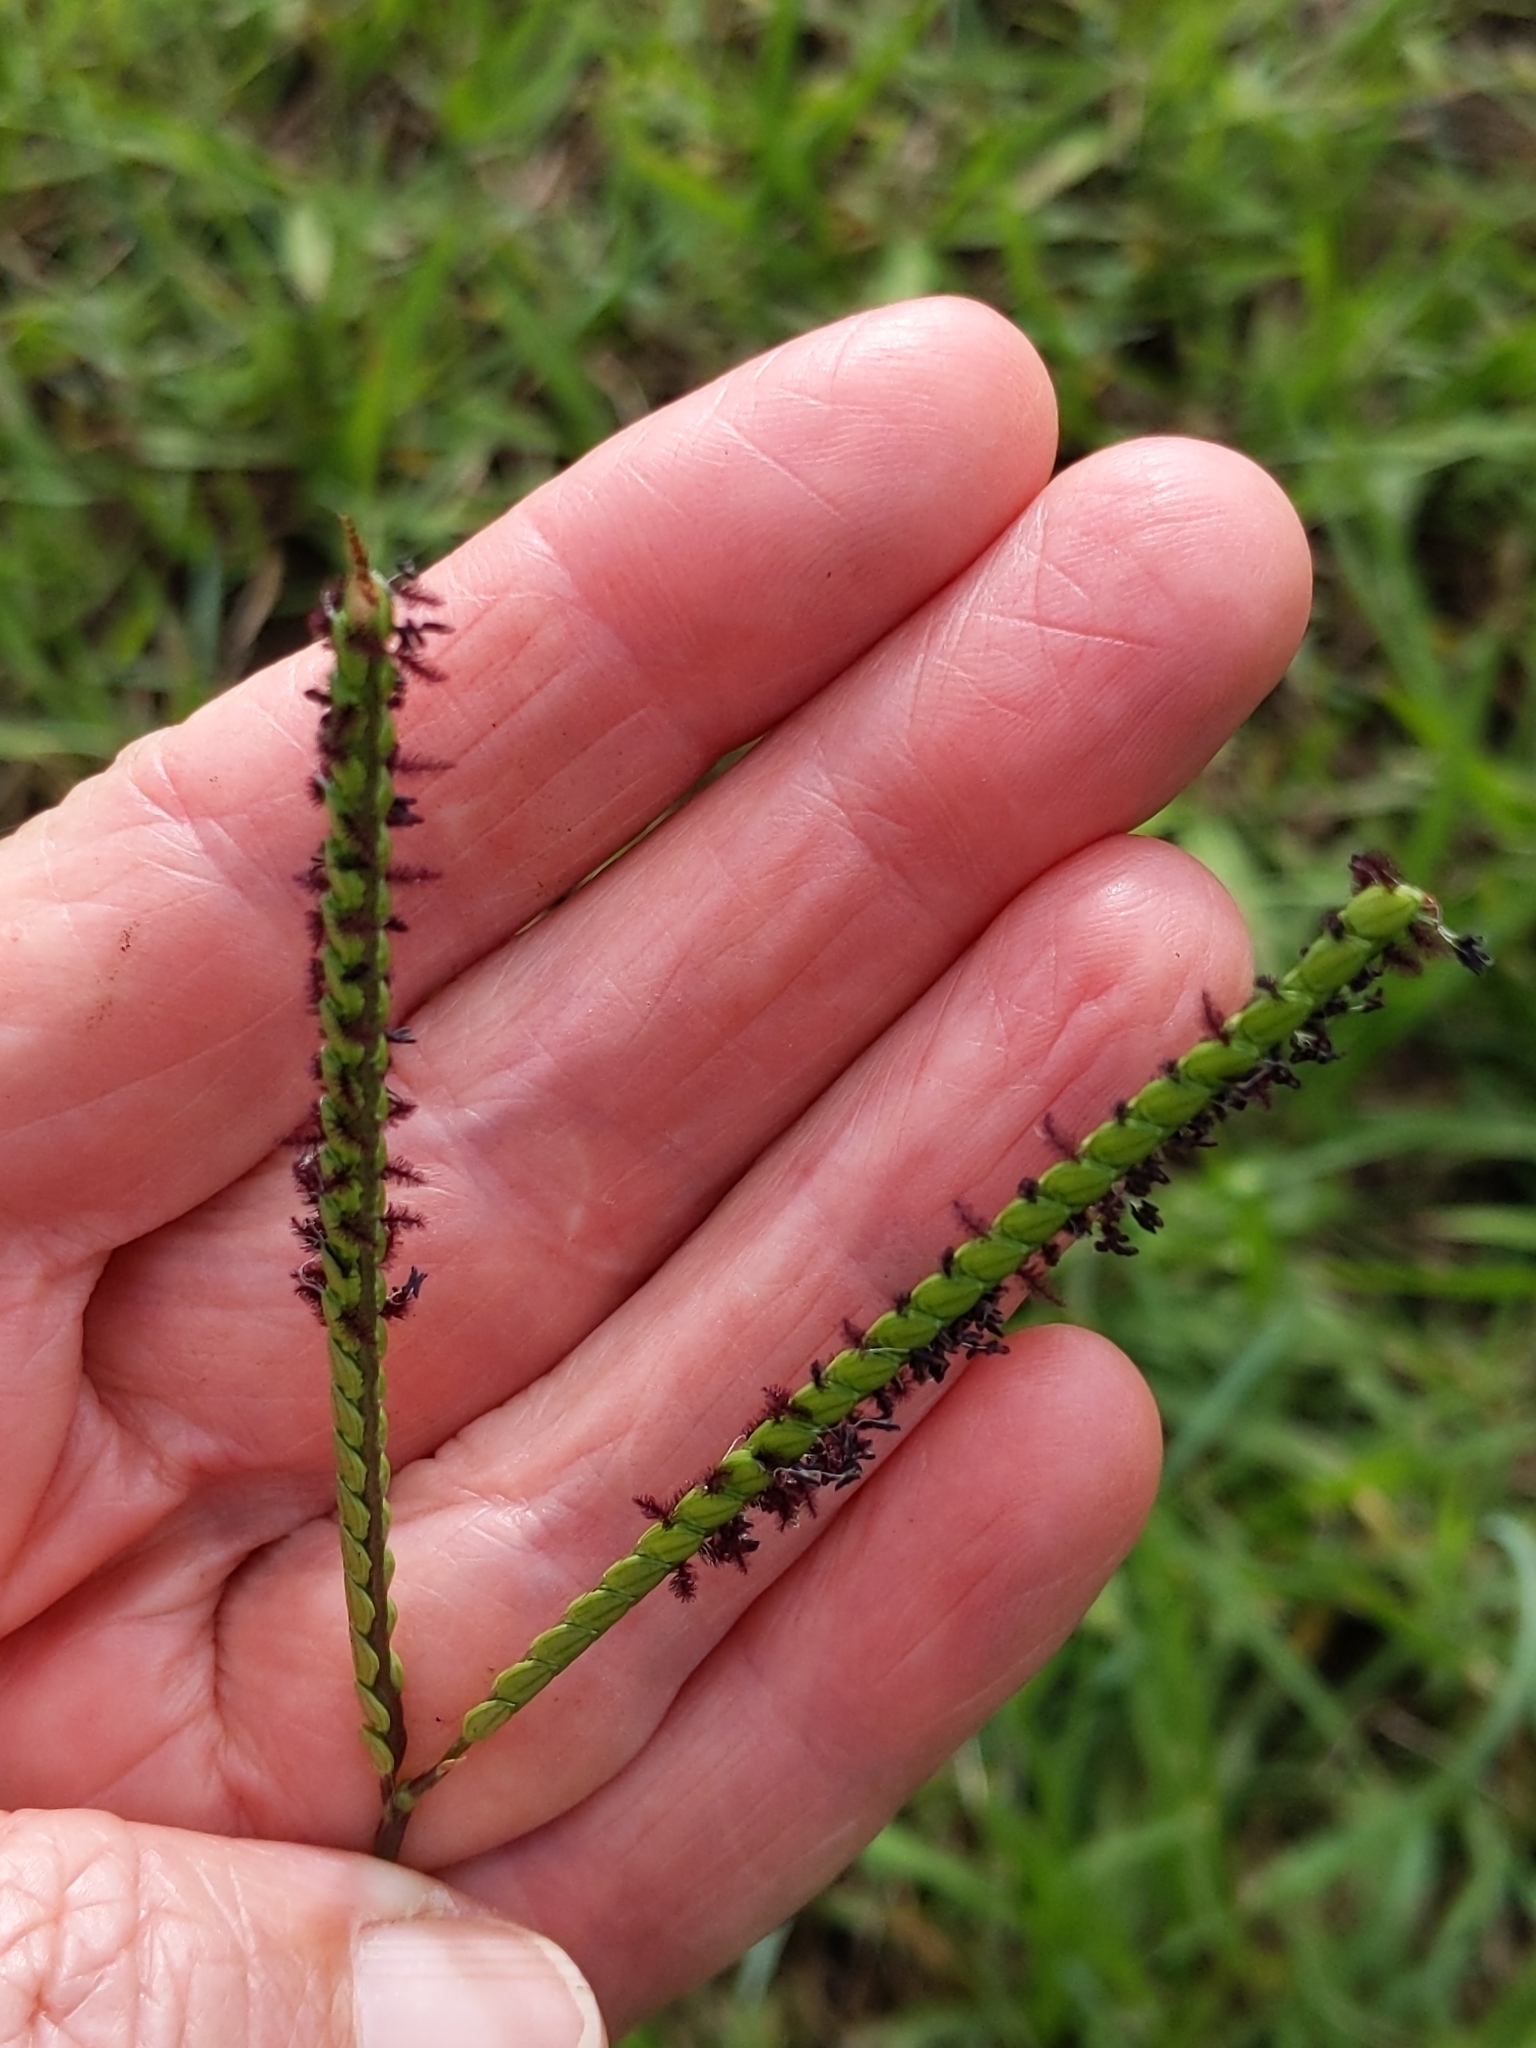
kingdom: Plantae
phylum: Tracheophyta
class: Liliopsida
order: Poales
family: Poaceae
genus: Paspalum
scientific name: Paspalum notatum
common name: Bahiagrass
